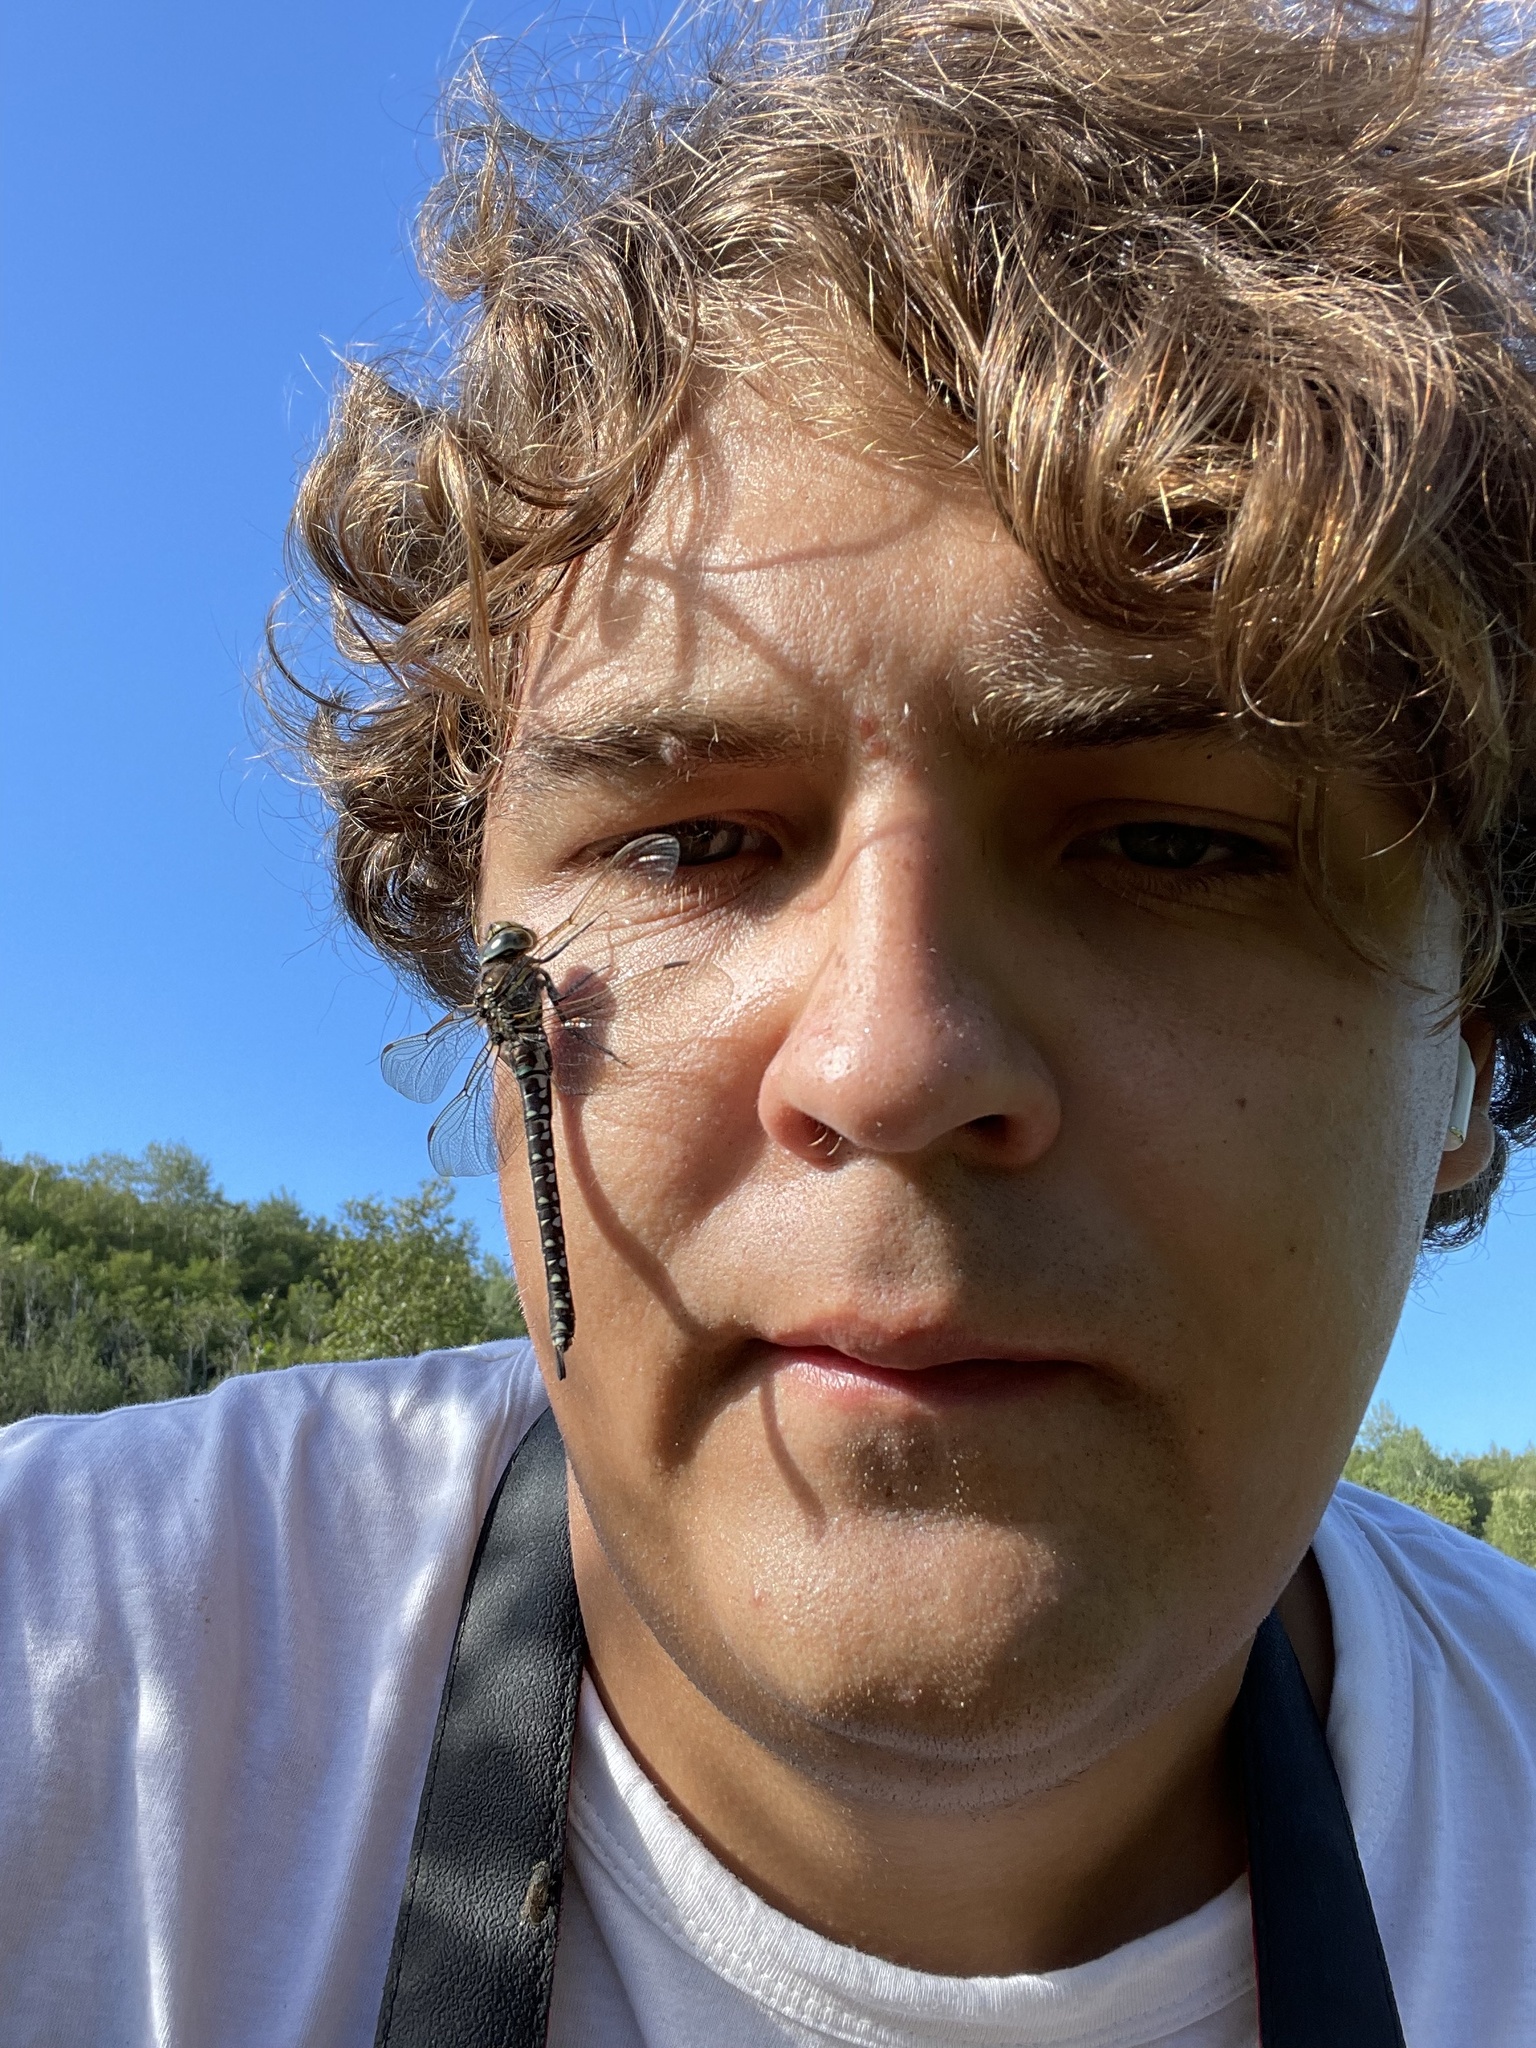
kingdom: Animalia
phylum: Arthropoda
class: Insecta
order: Odonata
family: Aeshnidae
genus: Aeshna
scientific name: Aeshna juncea
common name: Moorland hawker
